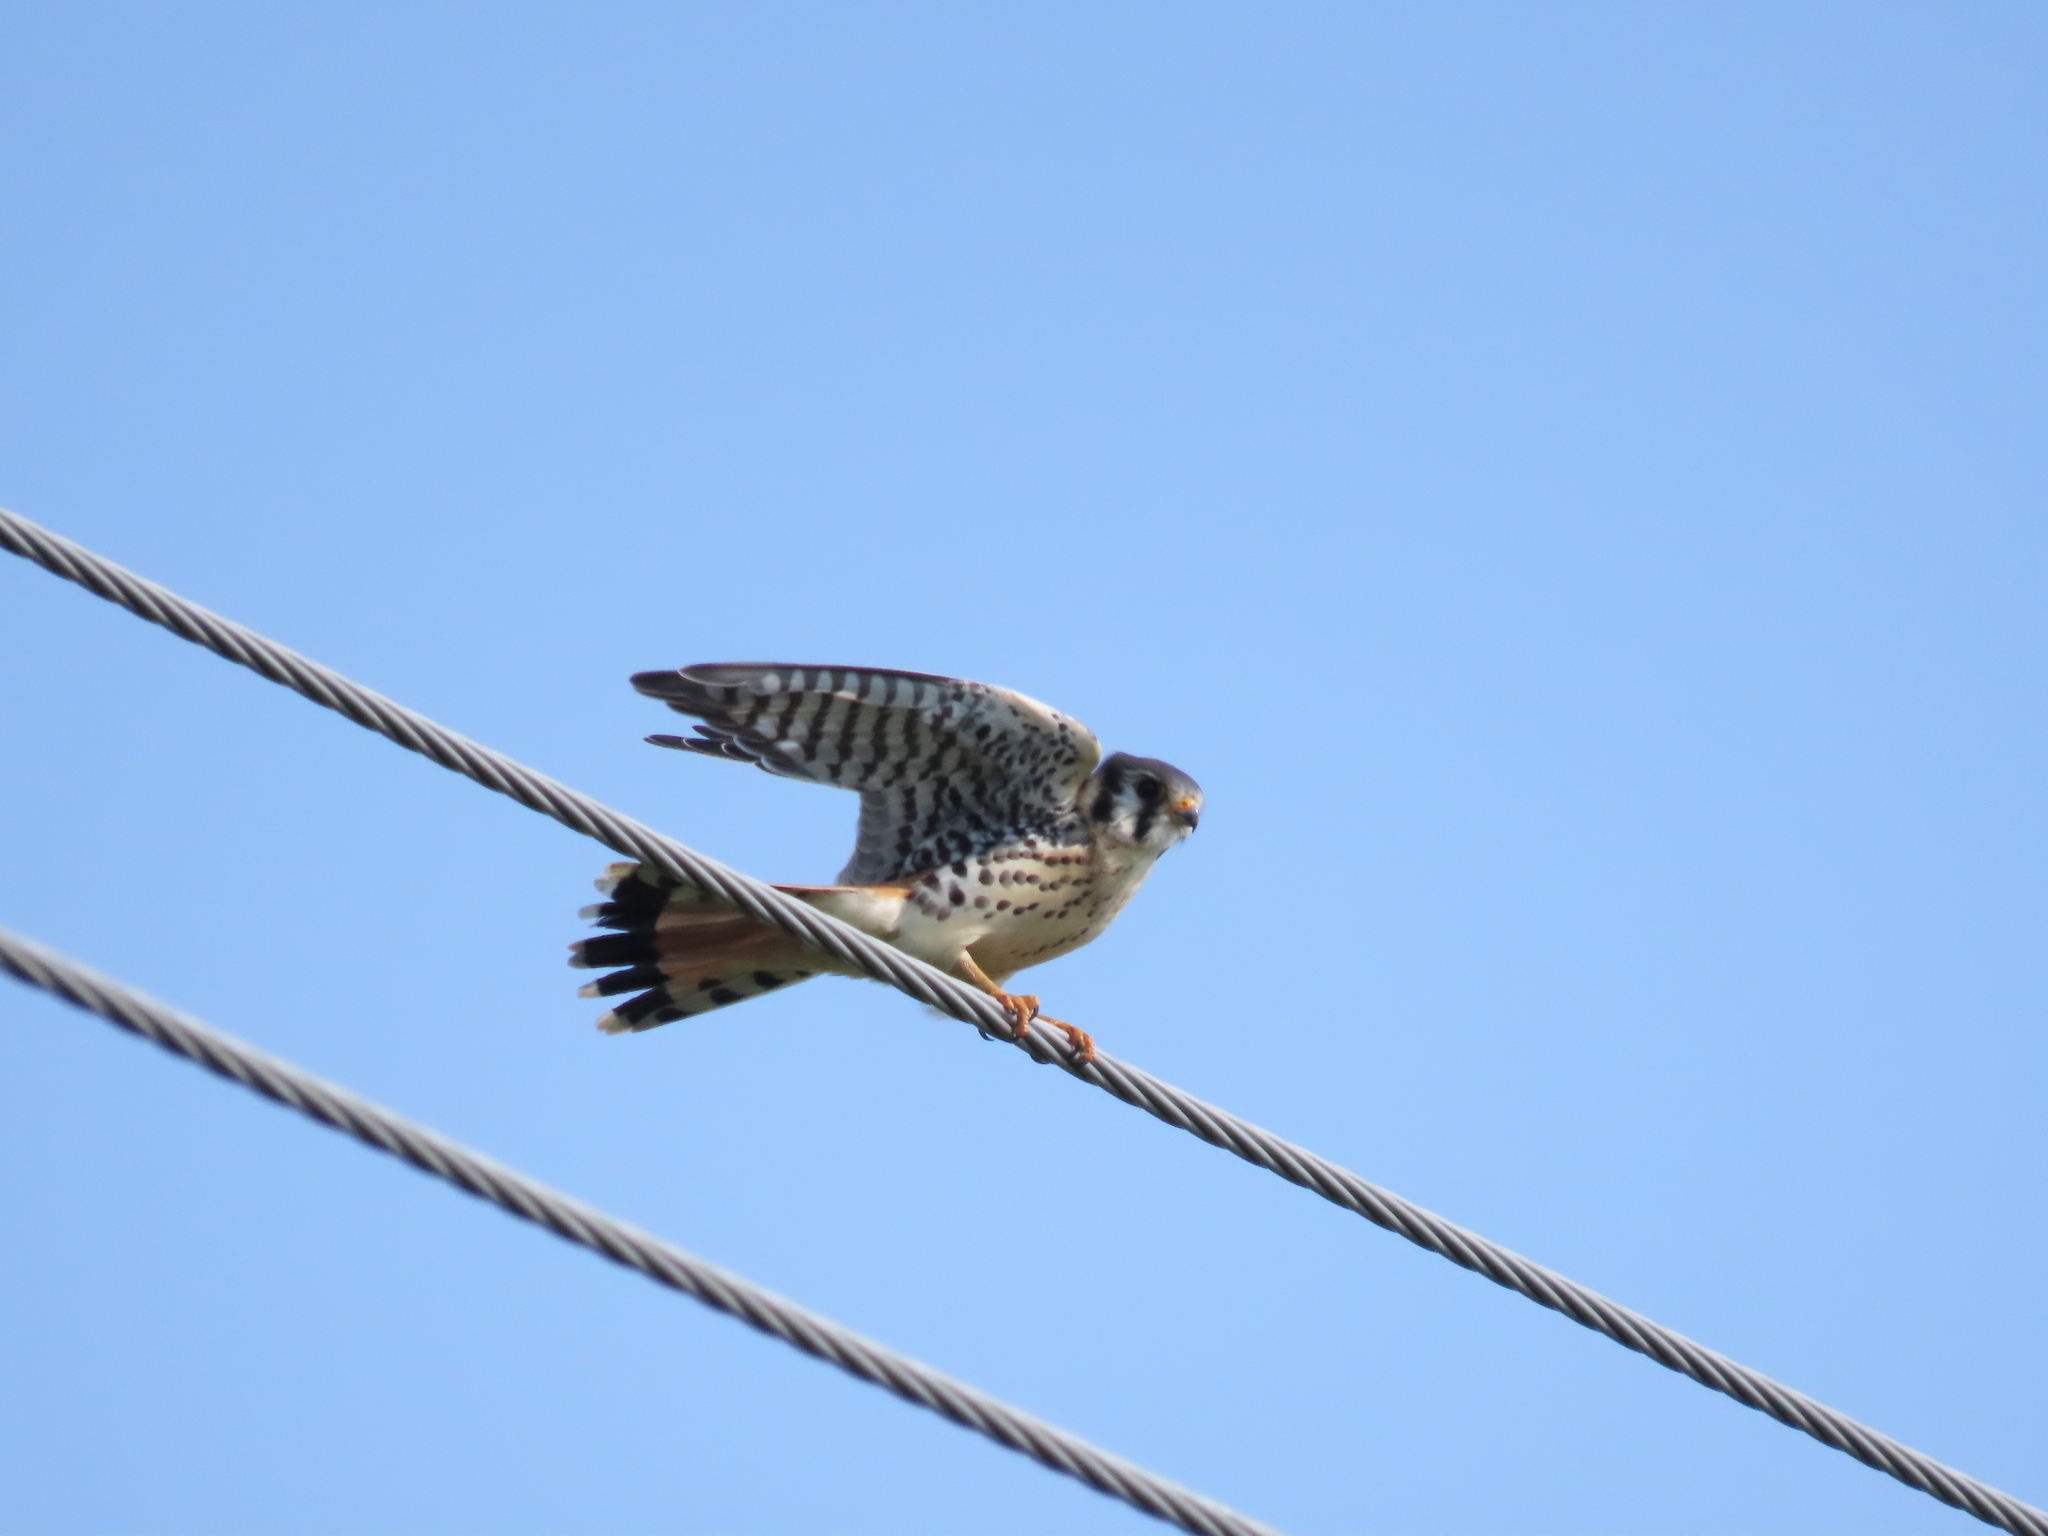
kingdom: Animalia
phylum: Chordata
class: Aves
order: Falconiformes
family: Falconidae
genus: Falco
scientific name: Falco sparverius
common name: American kestrel
